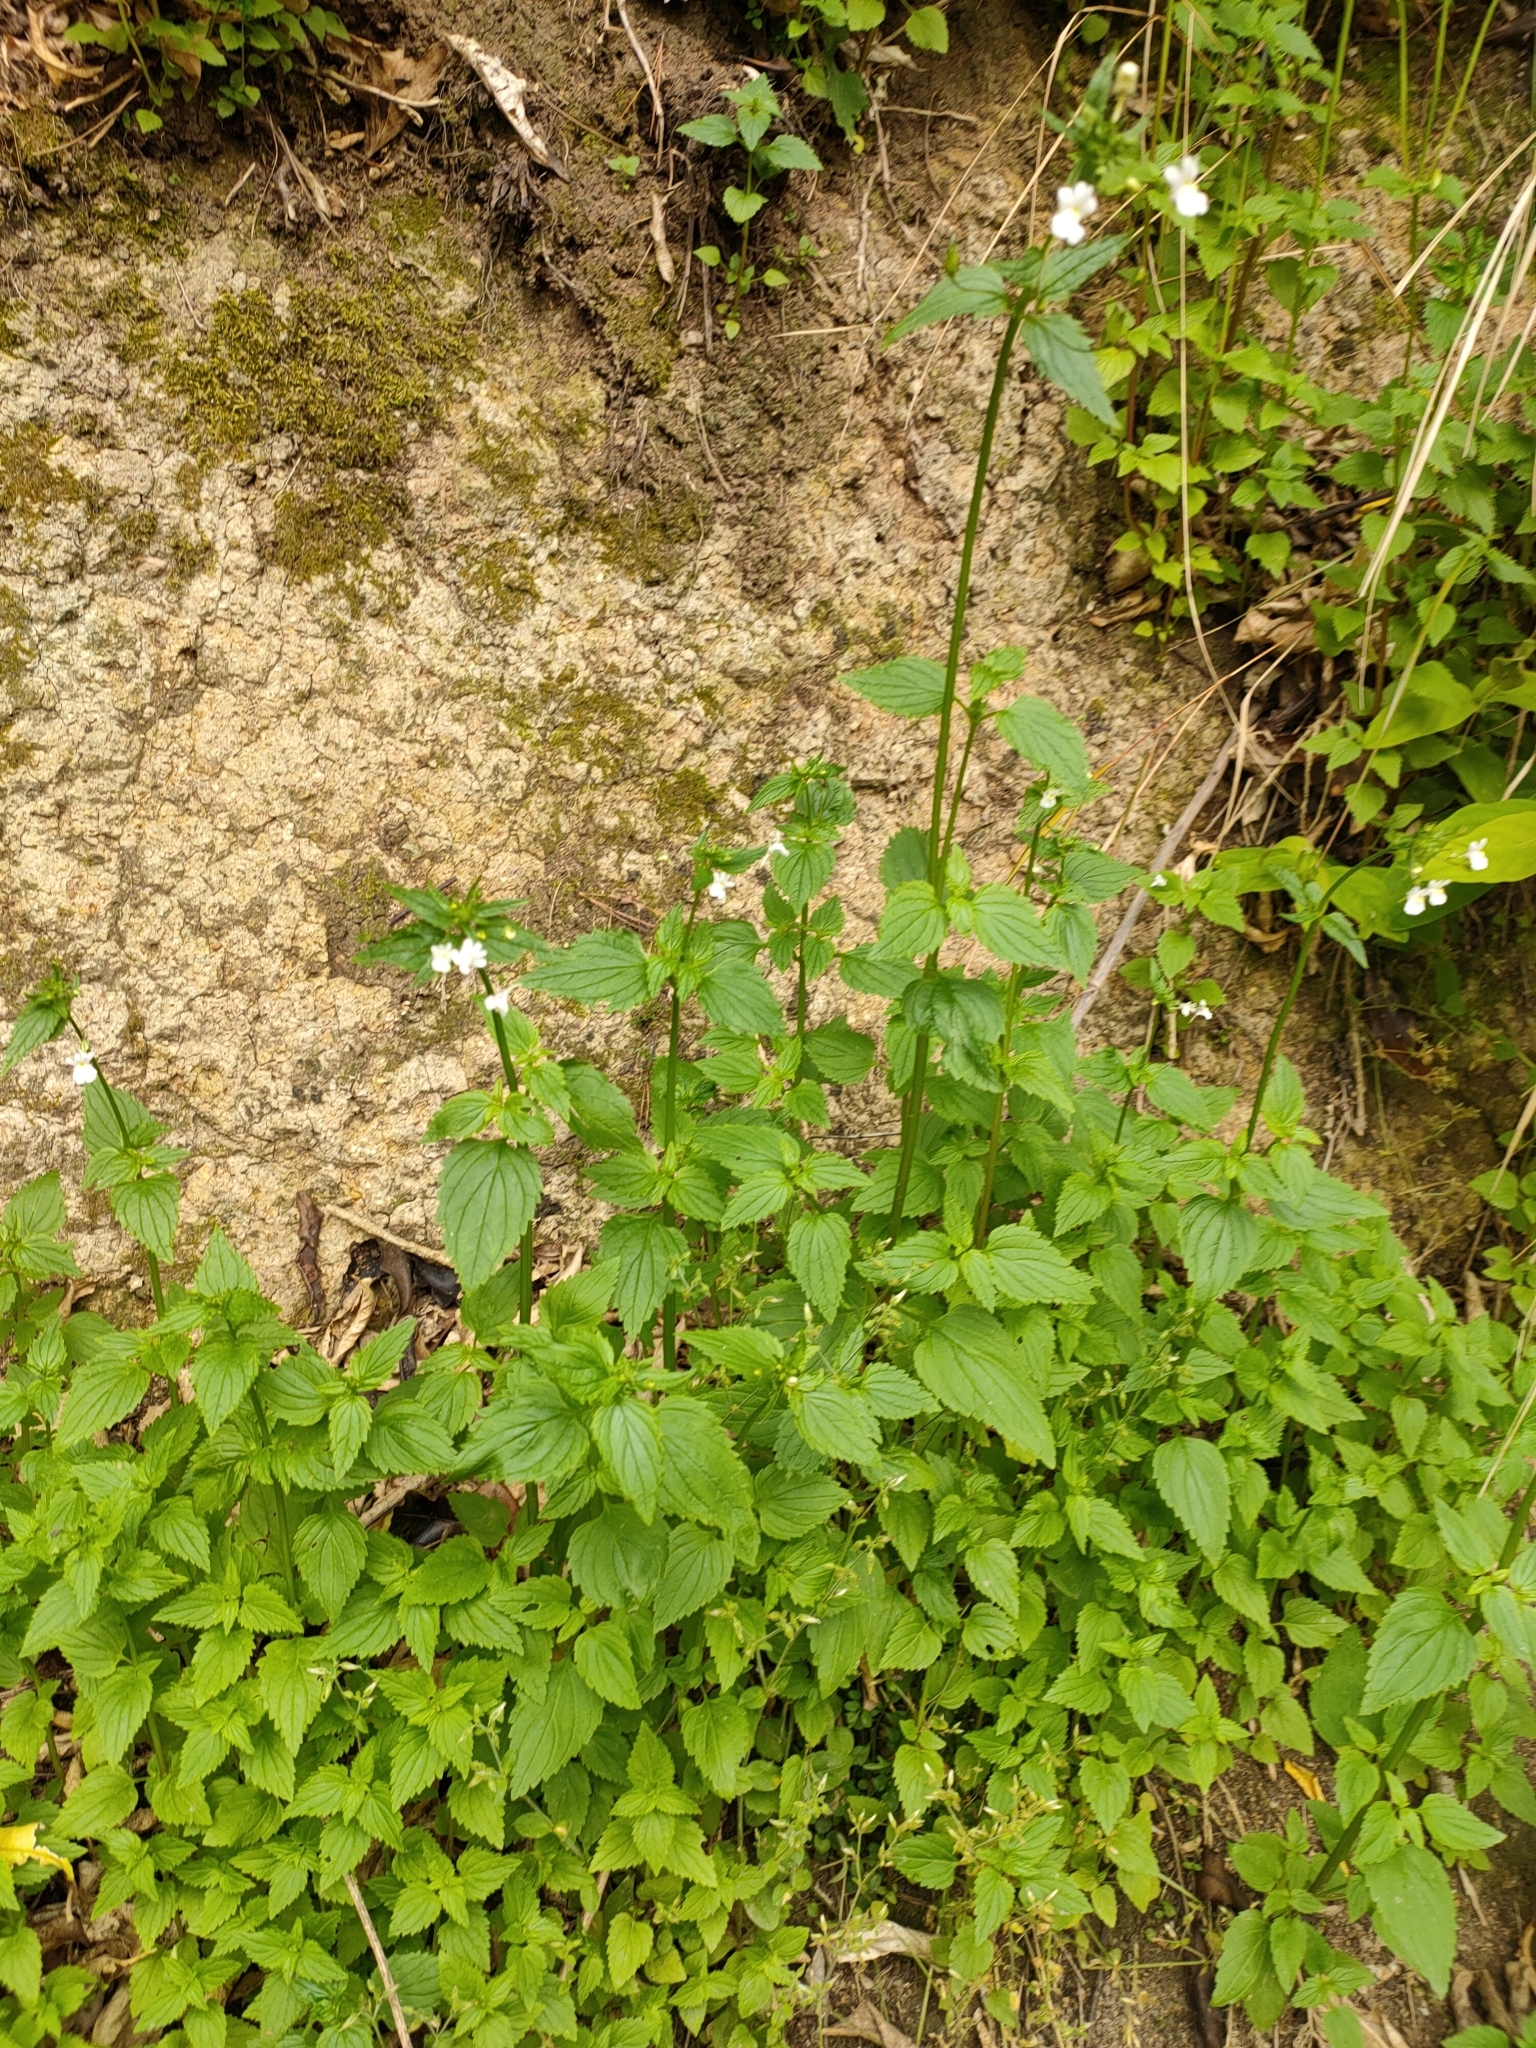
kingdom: Plantae
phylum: Tracheophyta
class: Magnoliopsida
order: Lamiales
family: Scrophulariaceae
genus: Nemesia
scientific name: Nemesia floribunda
